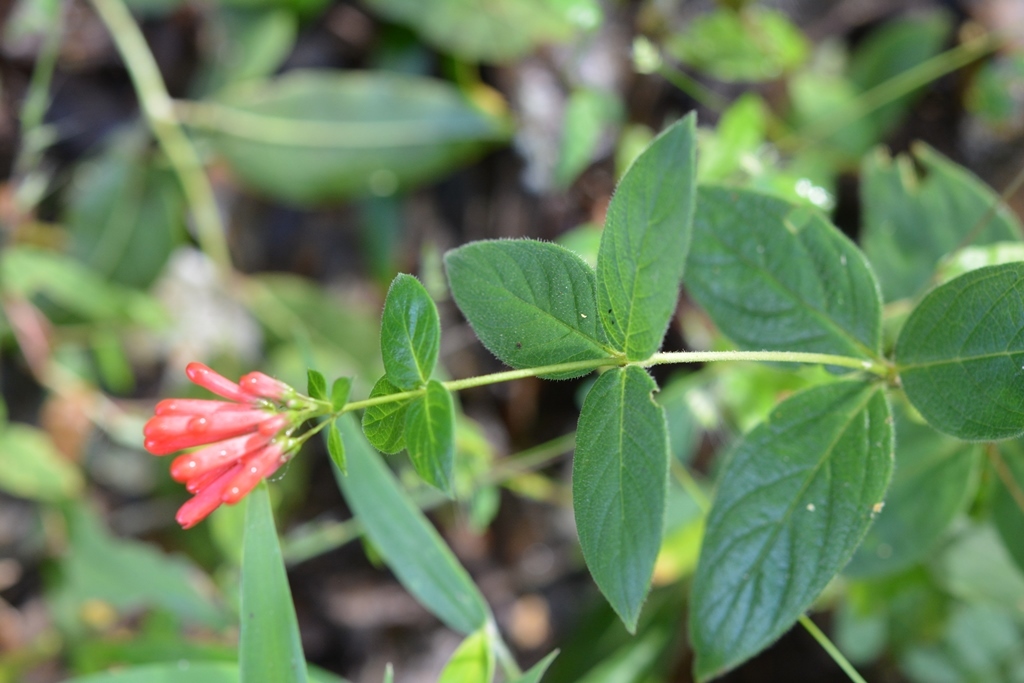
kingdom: Plantae
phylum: Tracheophyta
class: Magnoliopsida
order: Gentianales
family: Rubiaceae
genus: Bouvardia
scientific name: Bouvardia ternifolia
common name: Scarlet bouvardia
